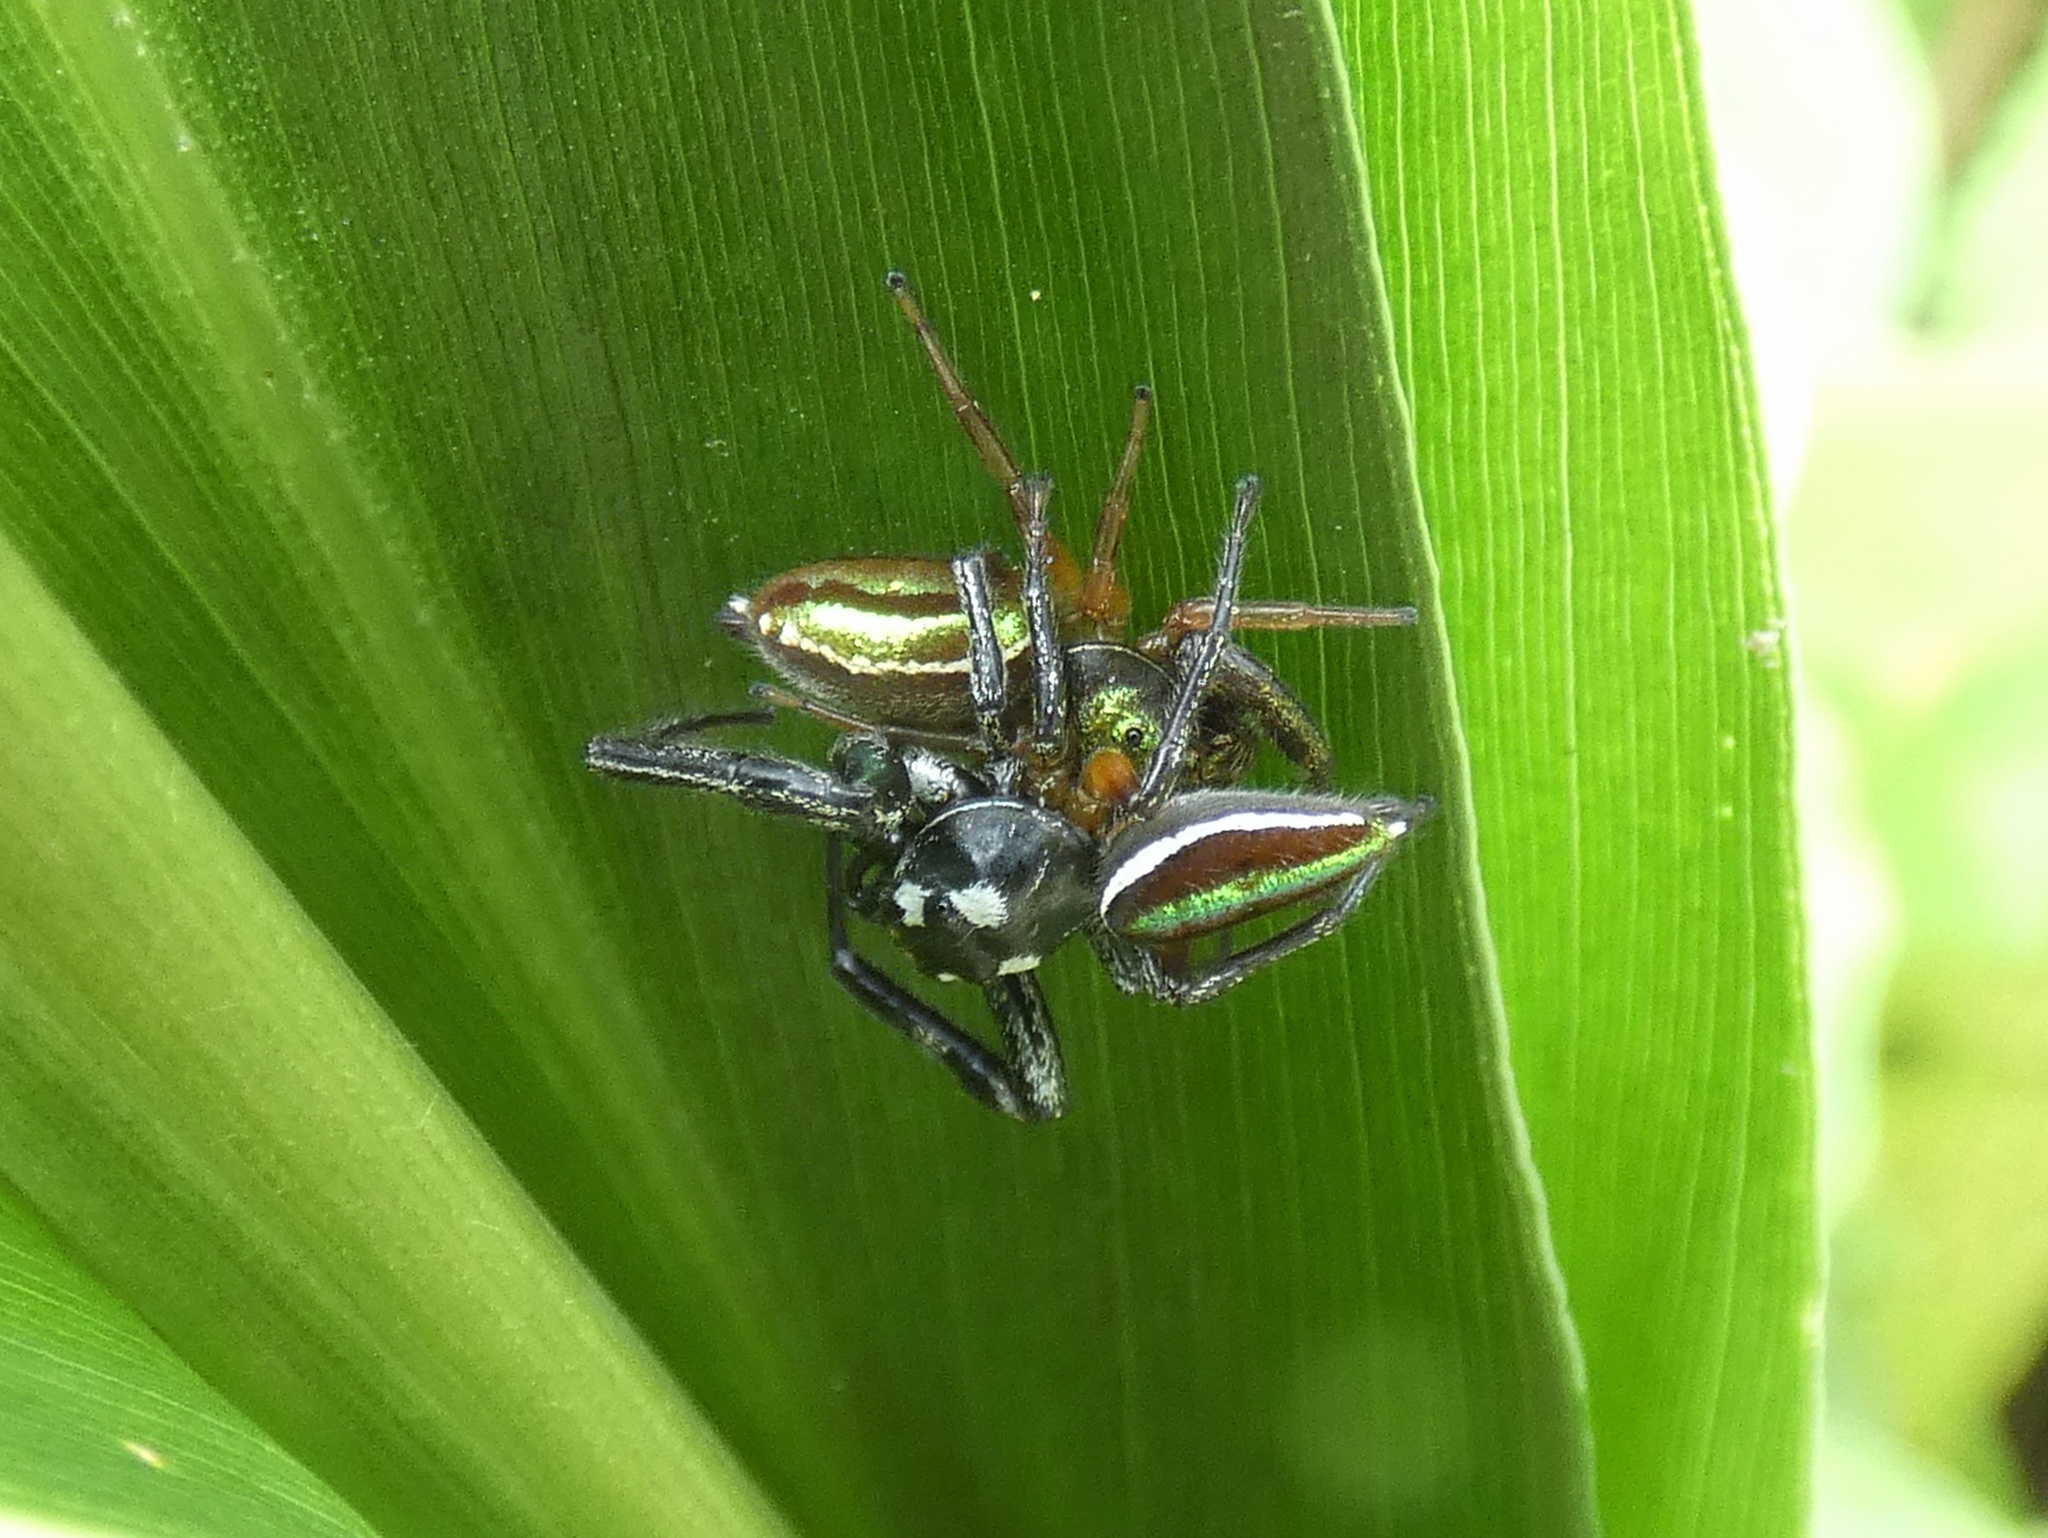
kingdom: Animalia
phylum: Arthropoda
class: Arachnida
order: Araneae
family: Salticidae
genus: Lurio
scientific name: Lurio solennis
